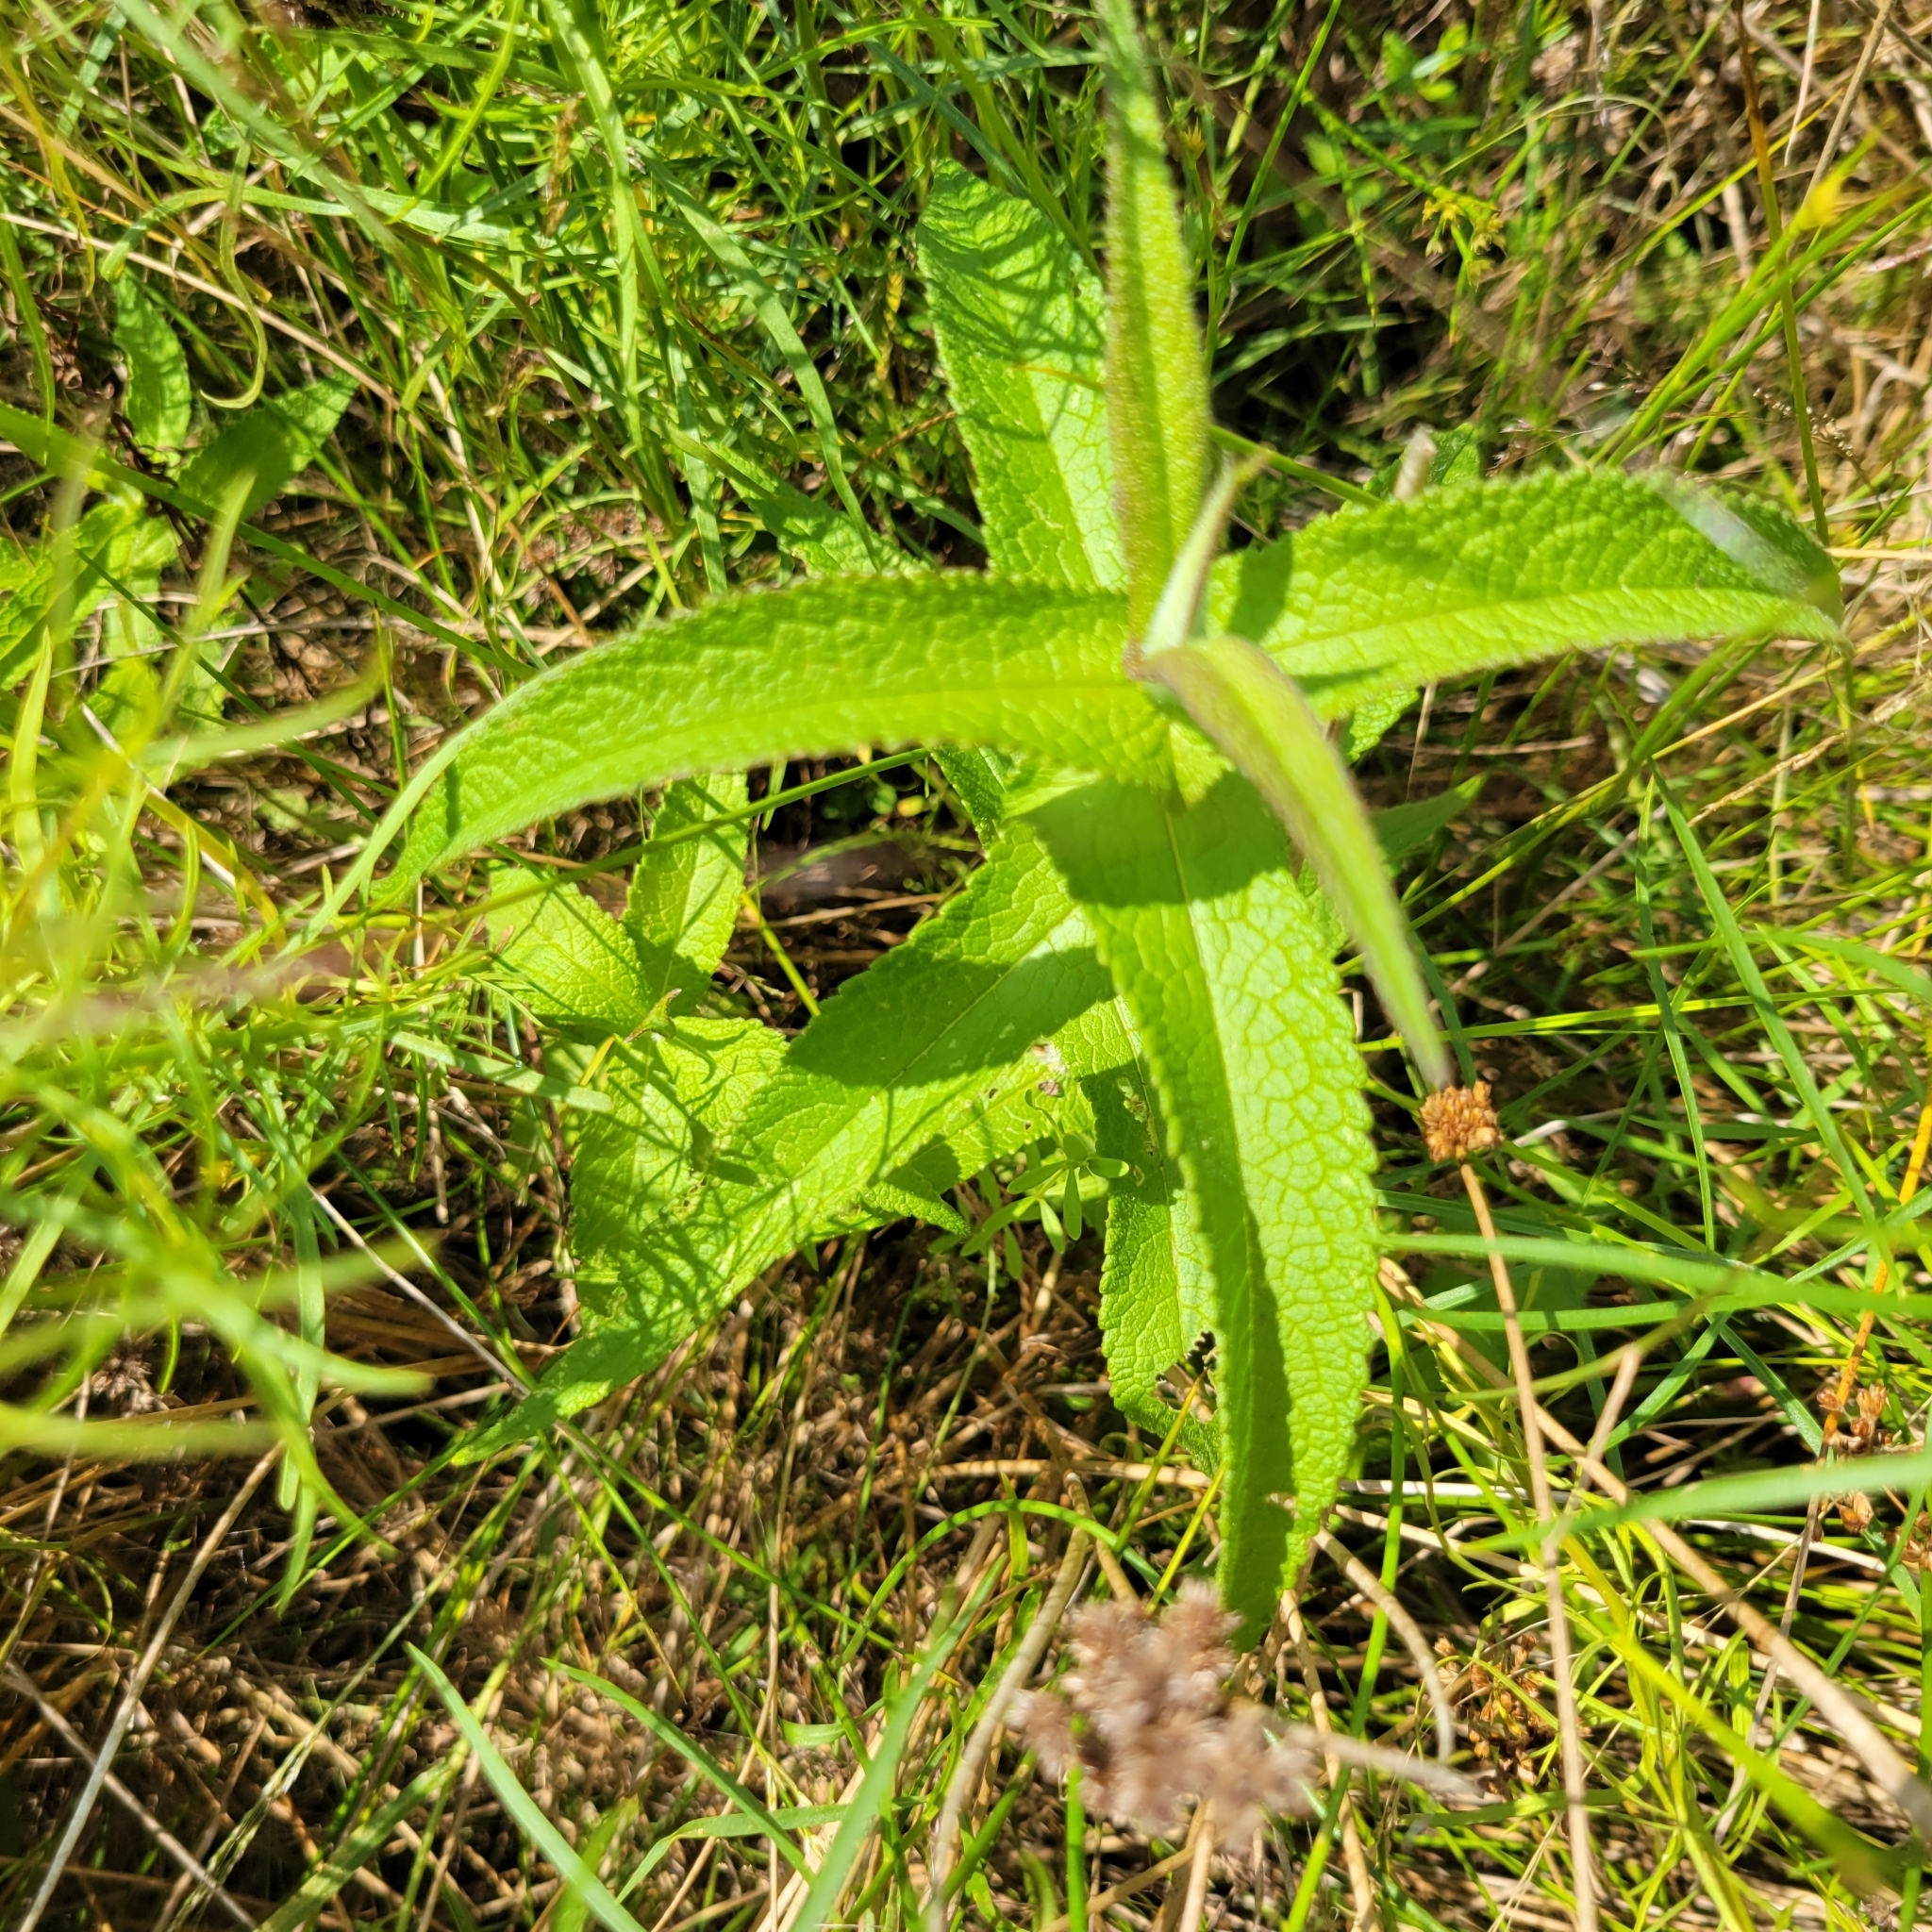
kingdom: Plantae
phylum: Tracheophyta
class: Magnoliopsida
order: Asterales
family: Asteraceae
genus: Eupatorium
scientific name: Eupatorium perfoliatum
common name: Boneset
